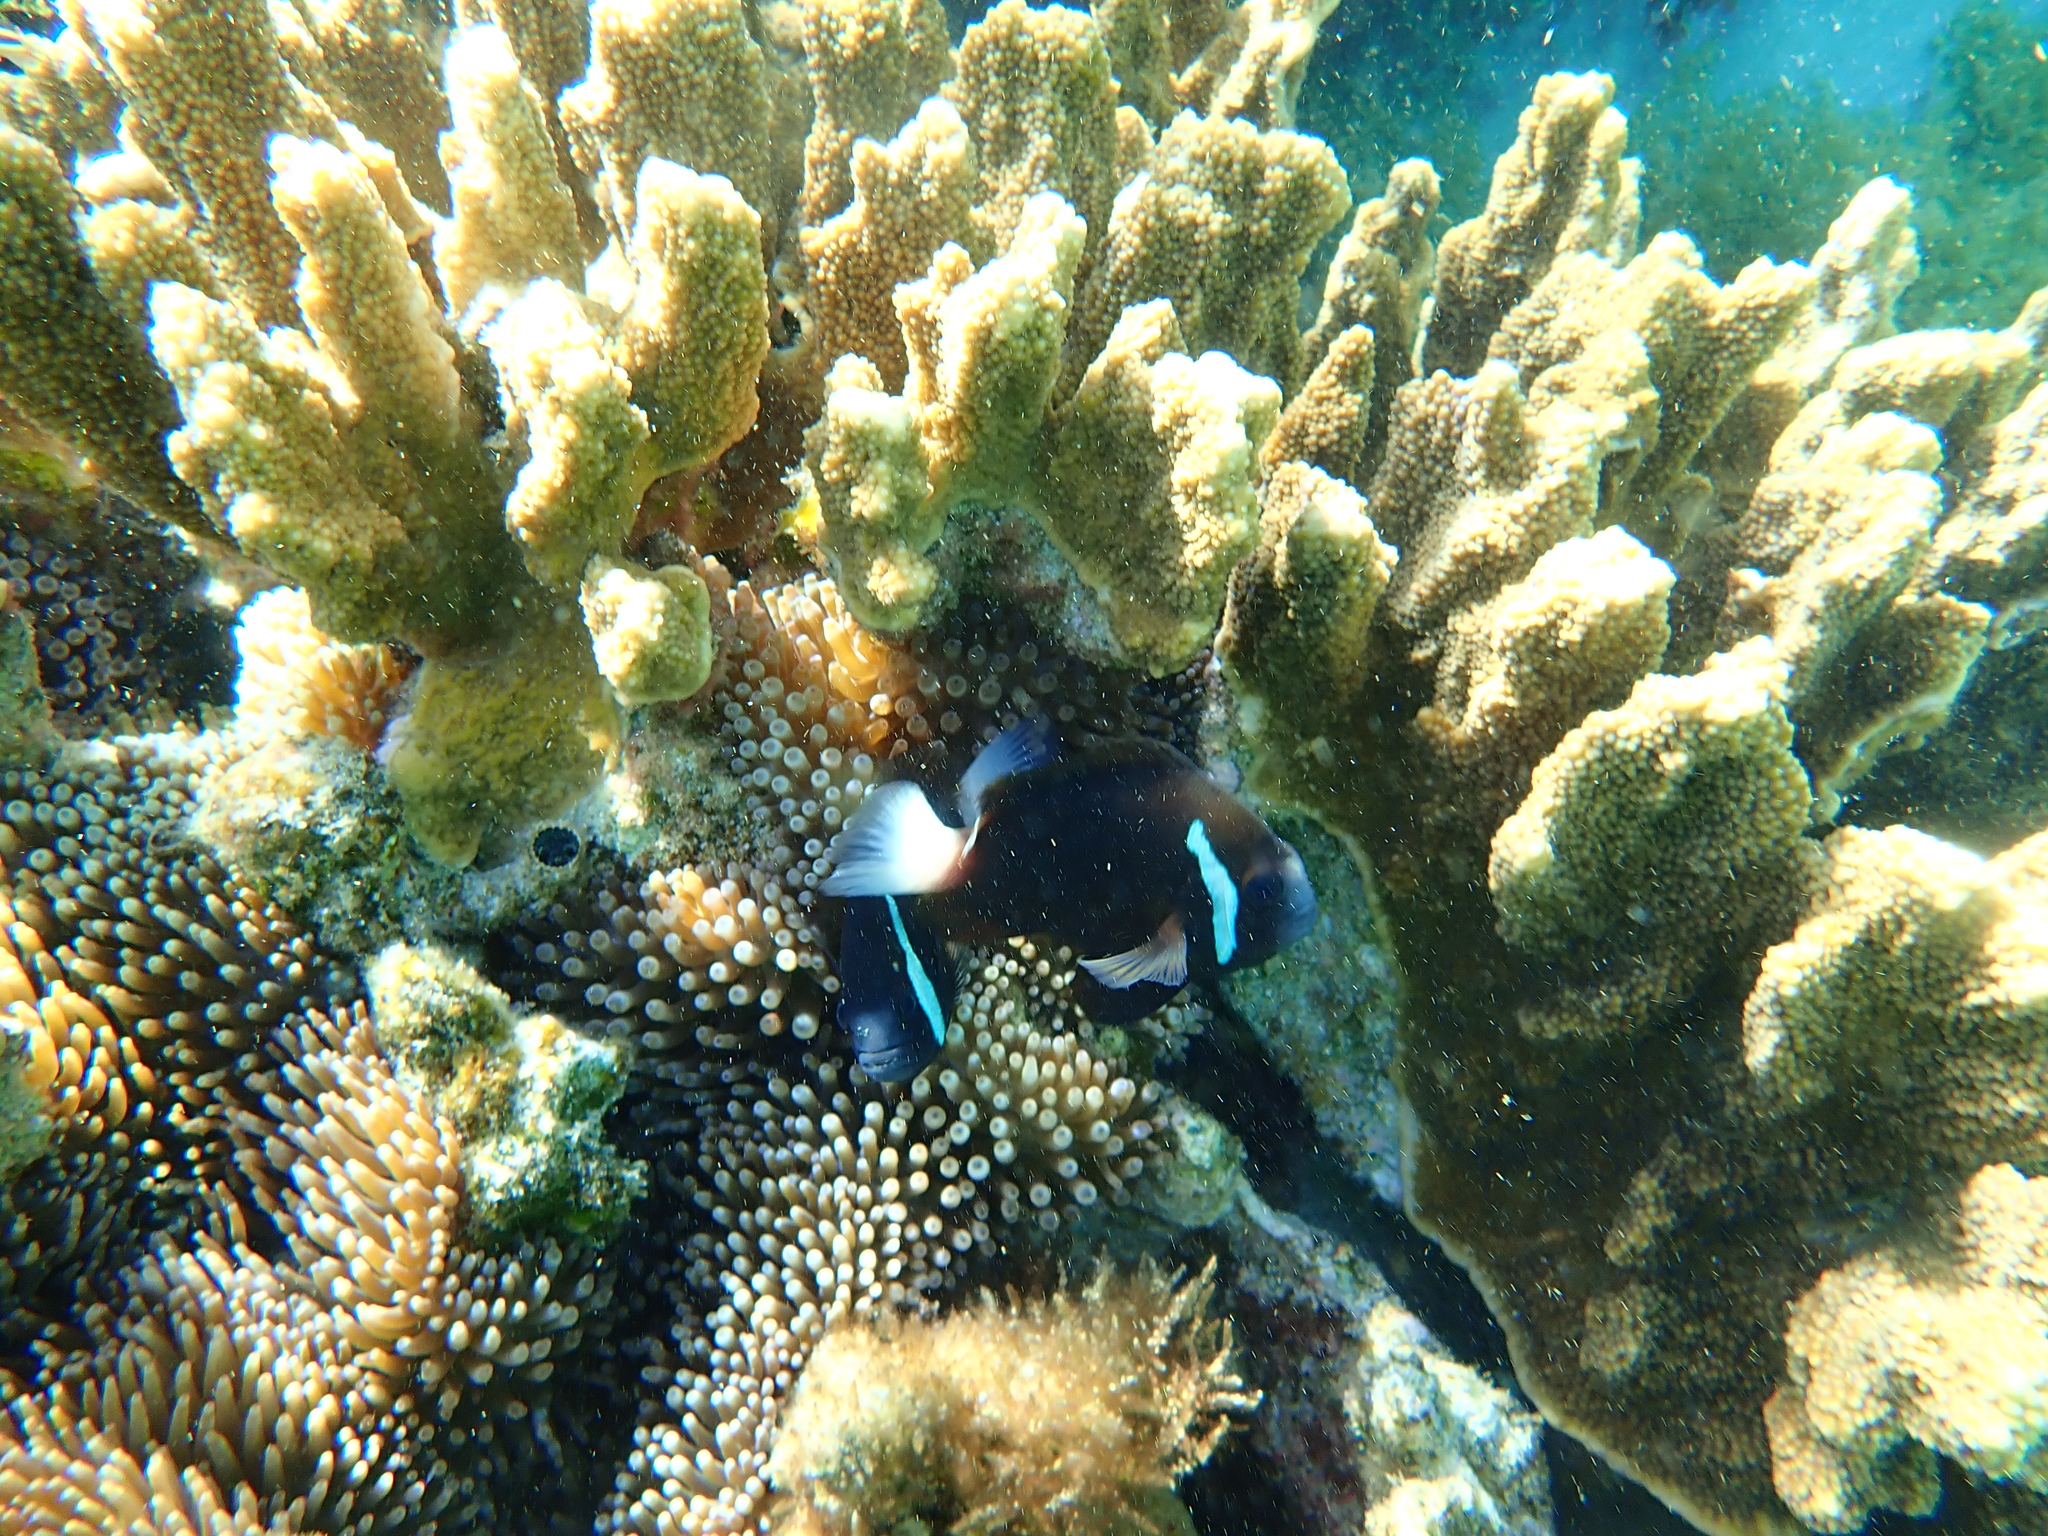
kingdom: Animalia
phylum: Chordata
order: Perciformes
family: Pomacentridae
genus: Amphiprion
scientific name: Amphiprion mccullochi
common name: Mcculloch's anemonefish
